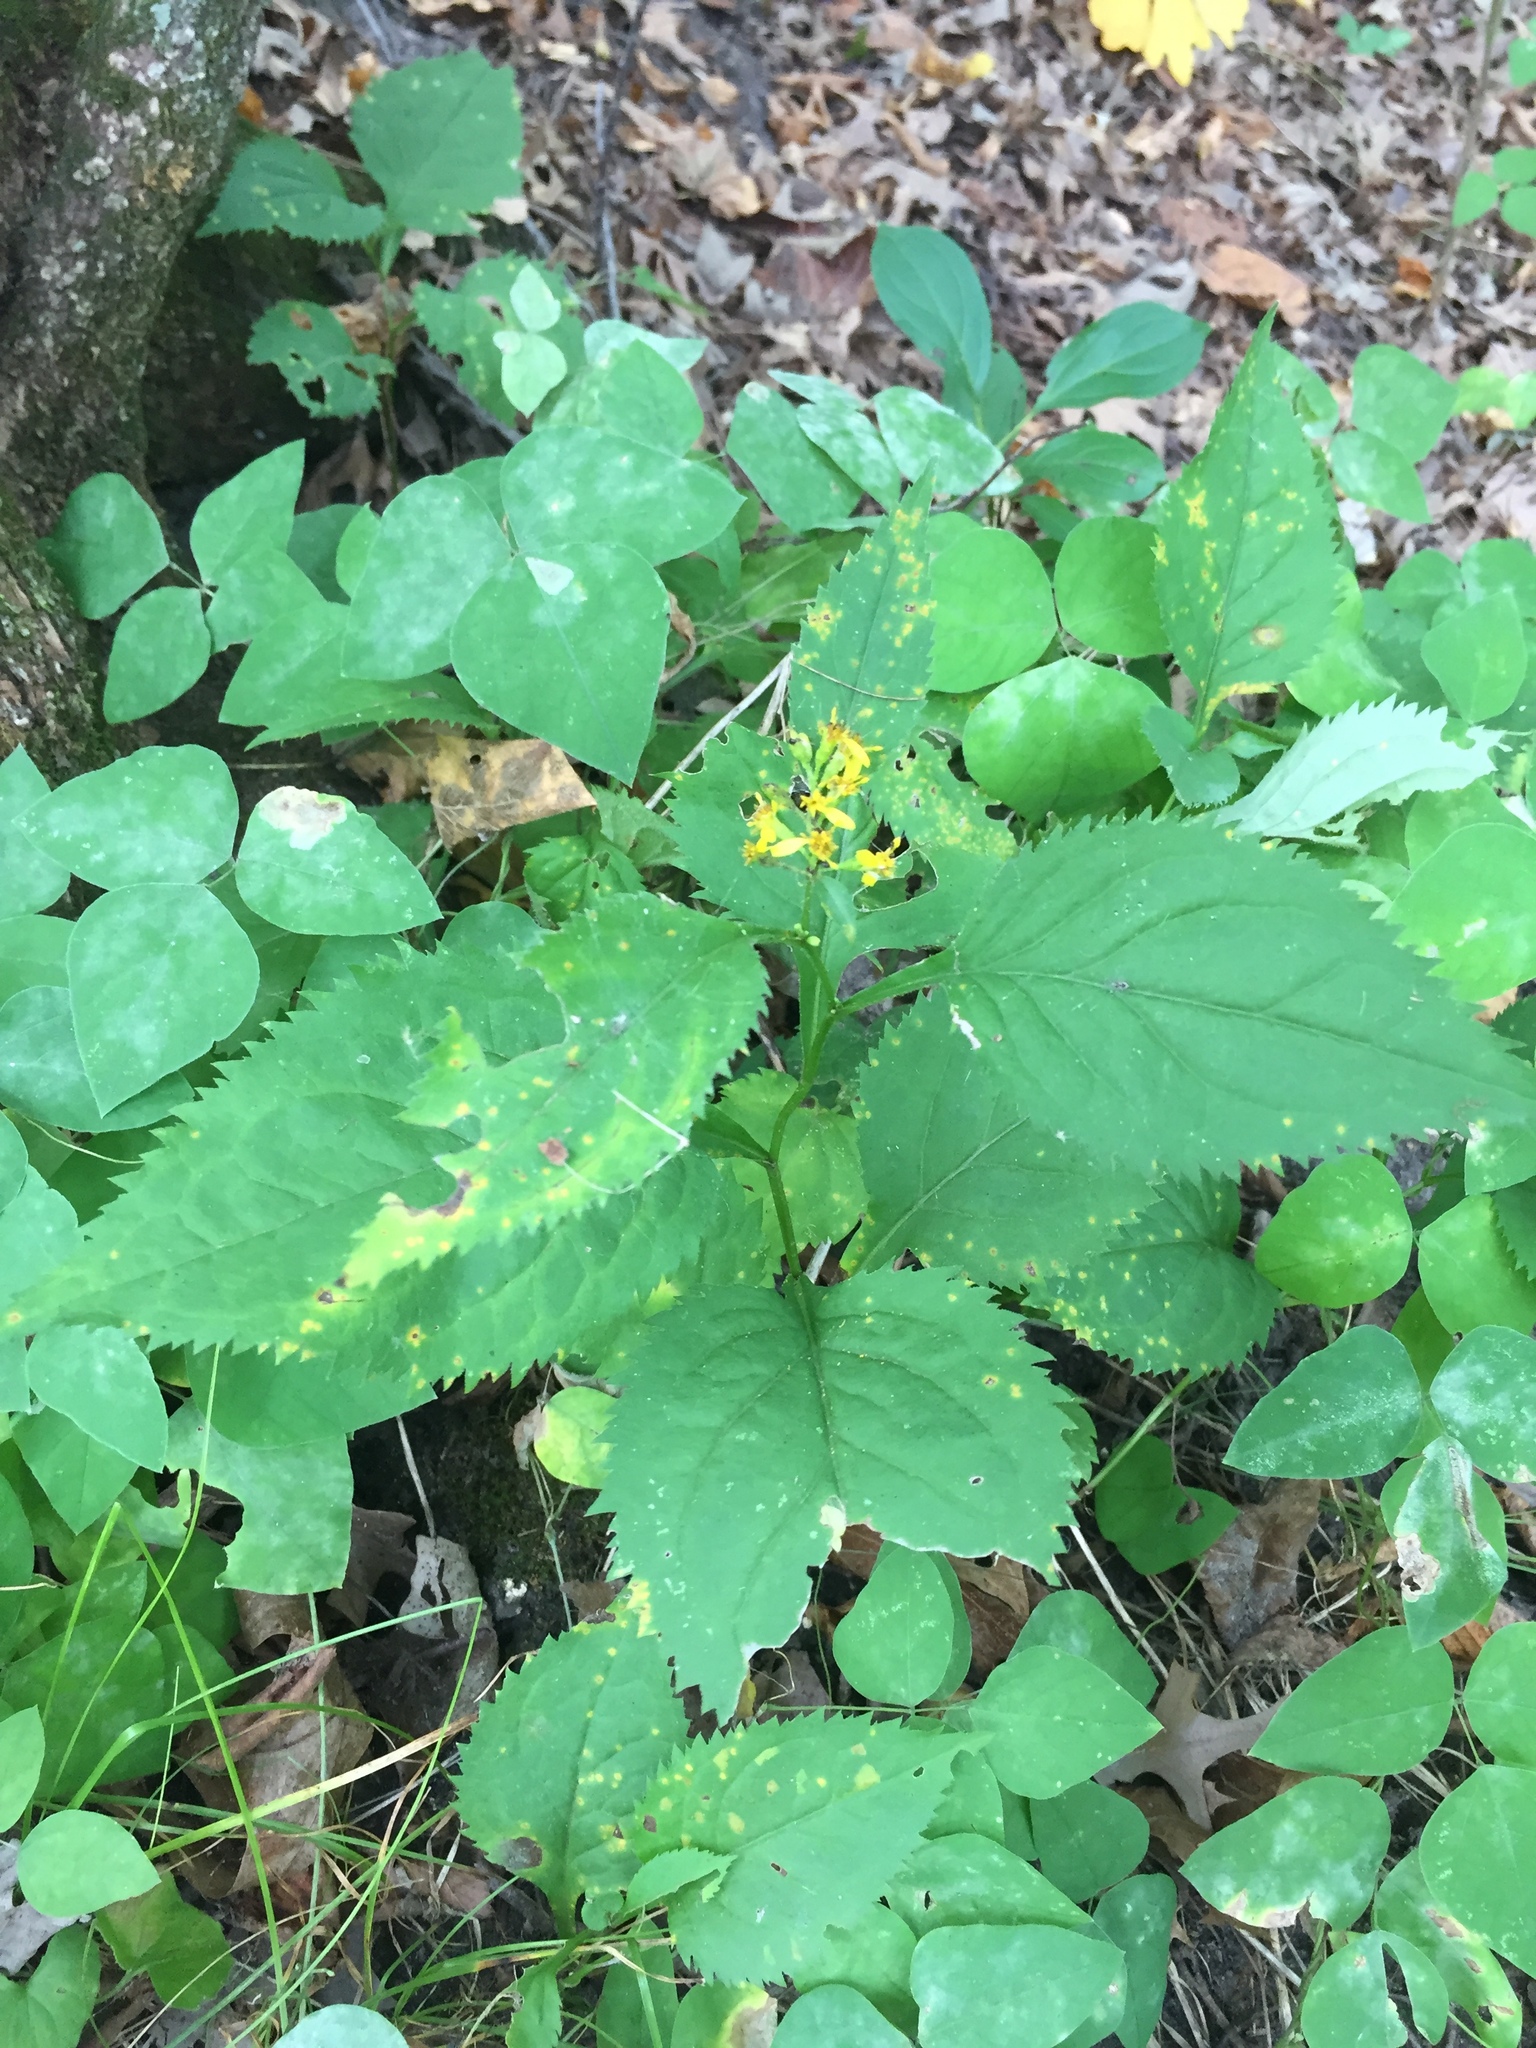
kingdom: Plantae
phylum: Tracheophyta
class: Magnoliopsida
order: Asterales
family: Asteraceae
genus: Solidago
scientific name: Solidago flexicaulis
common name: Zig-zag goldenrod
